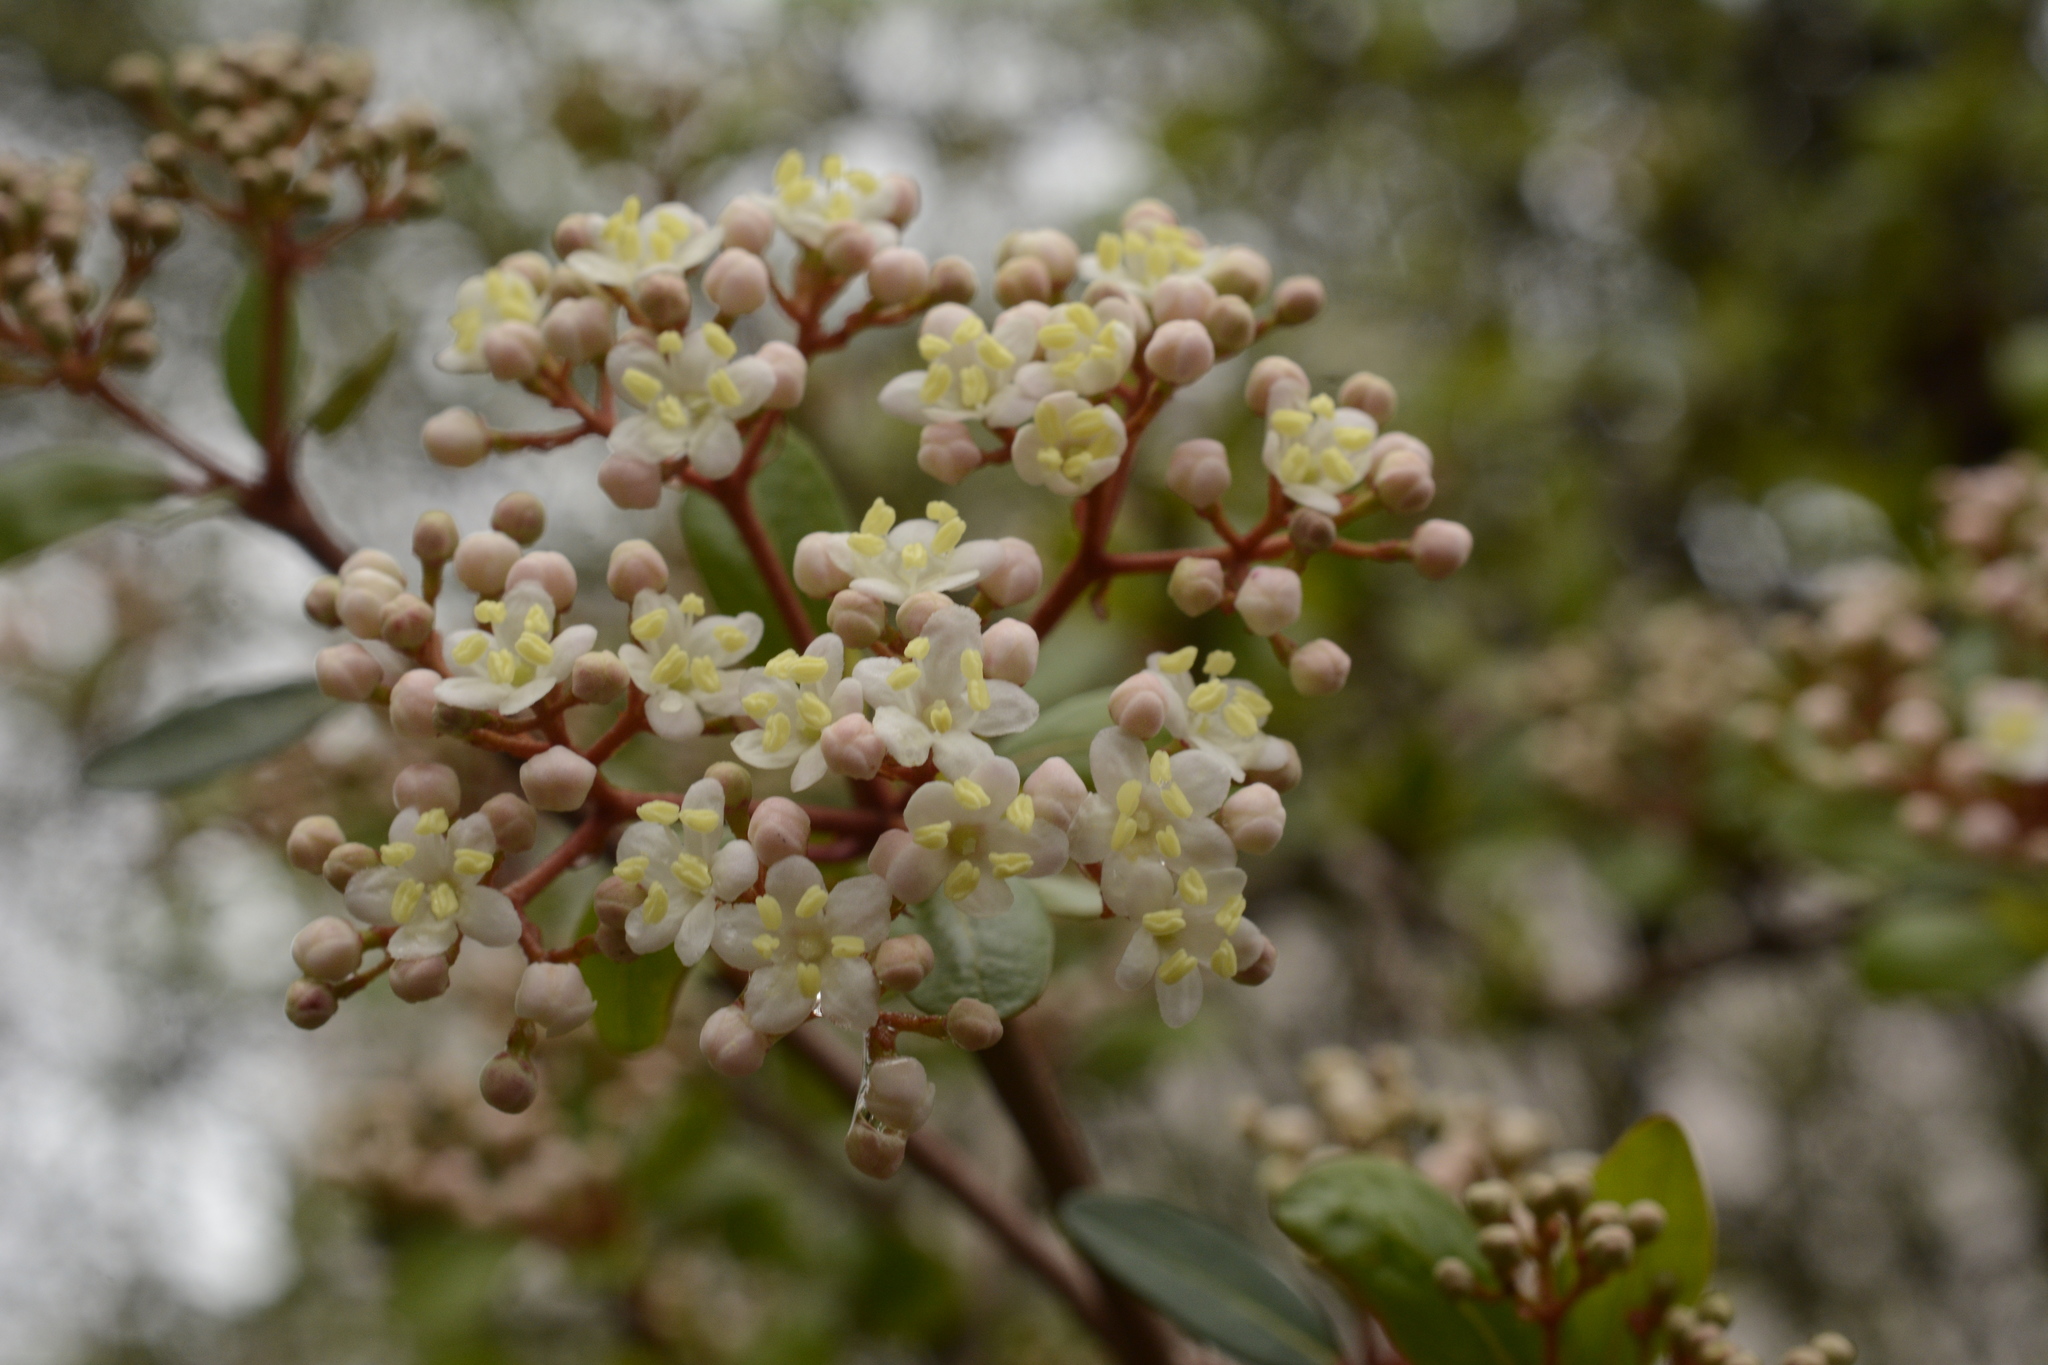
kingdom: Plantae
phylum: Tracheophyta
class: Magnoliopsida
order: Dipsacales
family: Viburnaceae
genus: Viburnum
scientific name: Viburnum obovatum
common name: Walter's viburnum
